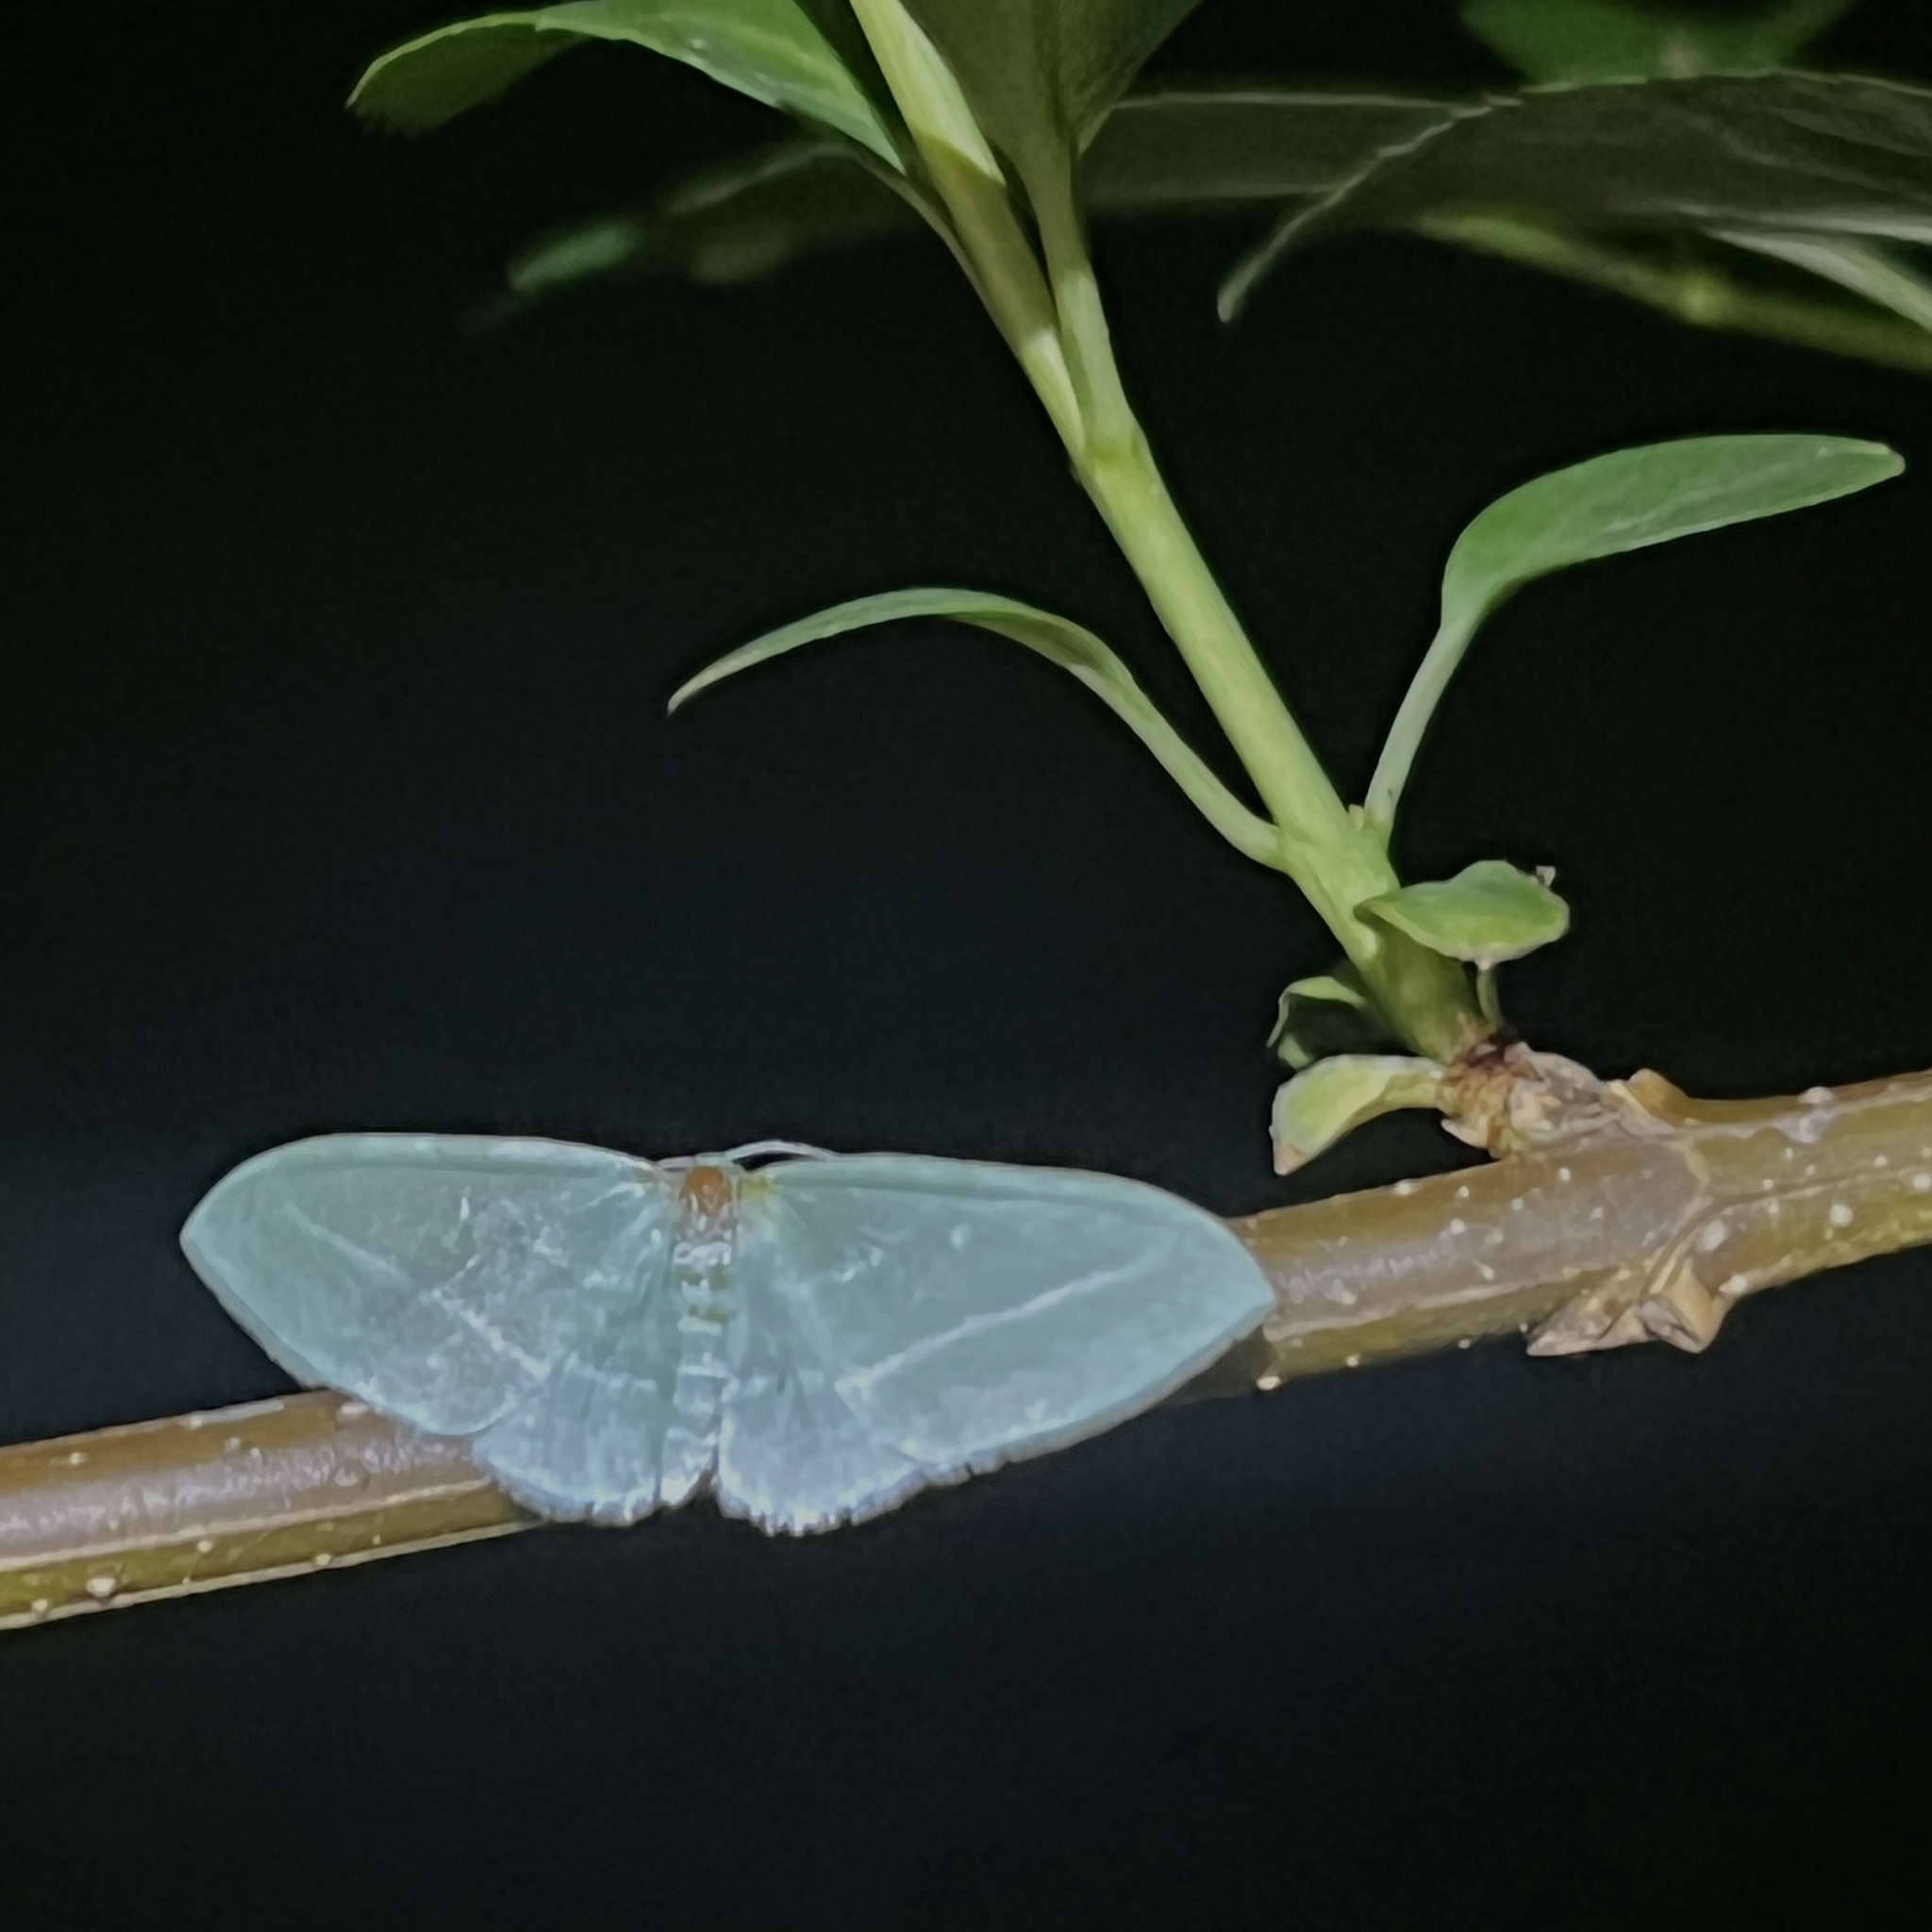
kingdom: Animalia
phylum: Arthropoda
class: Insecta
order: Lepidoptera
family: Geometridae
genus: Dyspteris
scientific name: Dyspteris abortivaria
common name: Bad-wing
